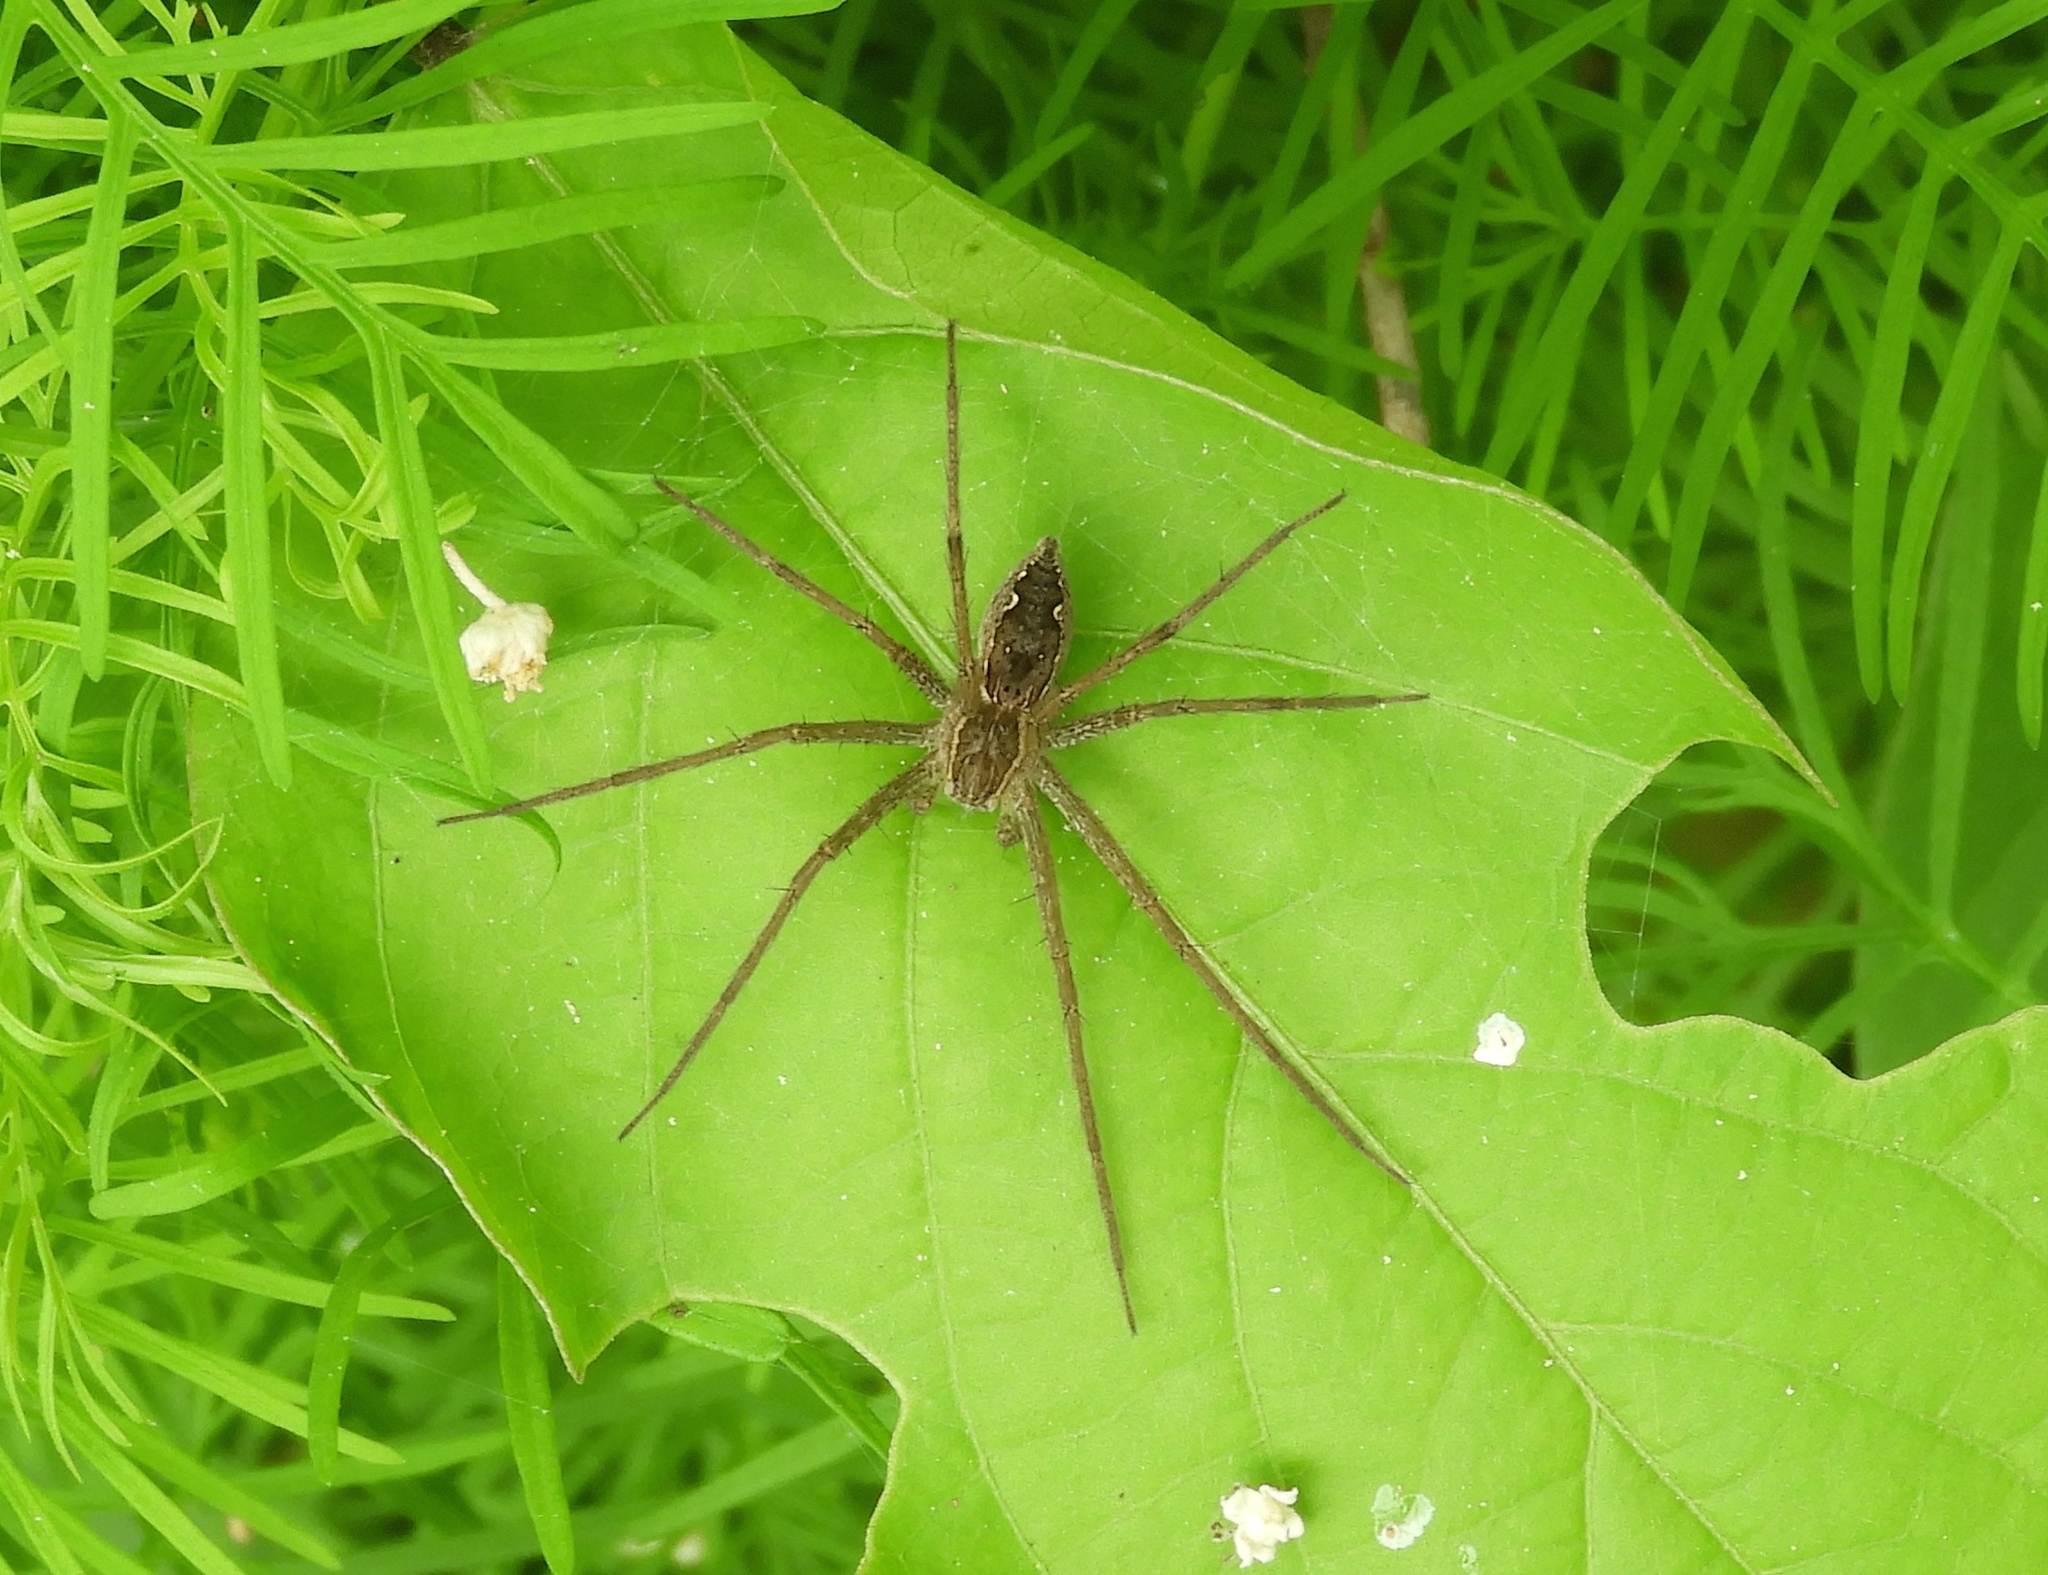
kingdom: Animalia
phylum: Arthropoda
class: Arachnida
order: Araneae
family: Pisauridae
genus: Tinus
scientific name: Tinus
